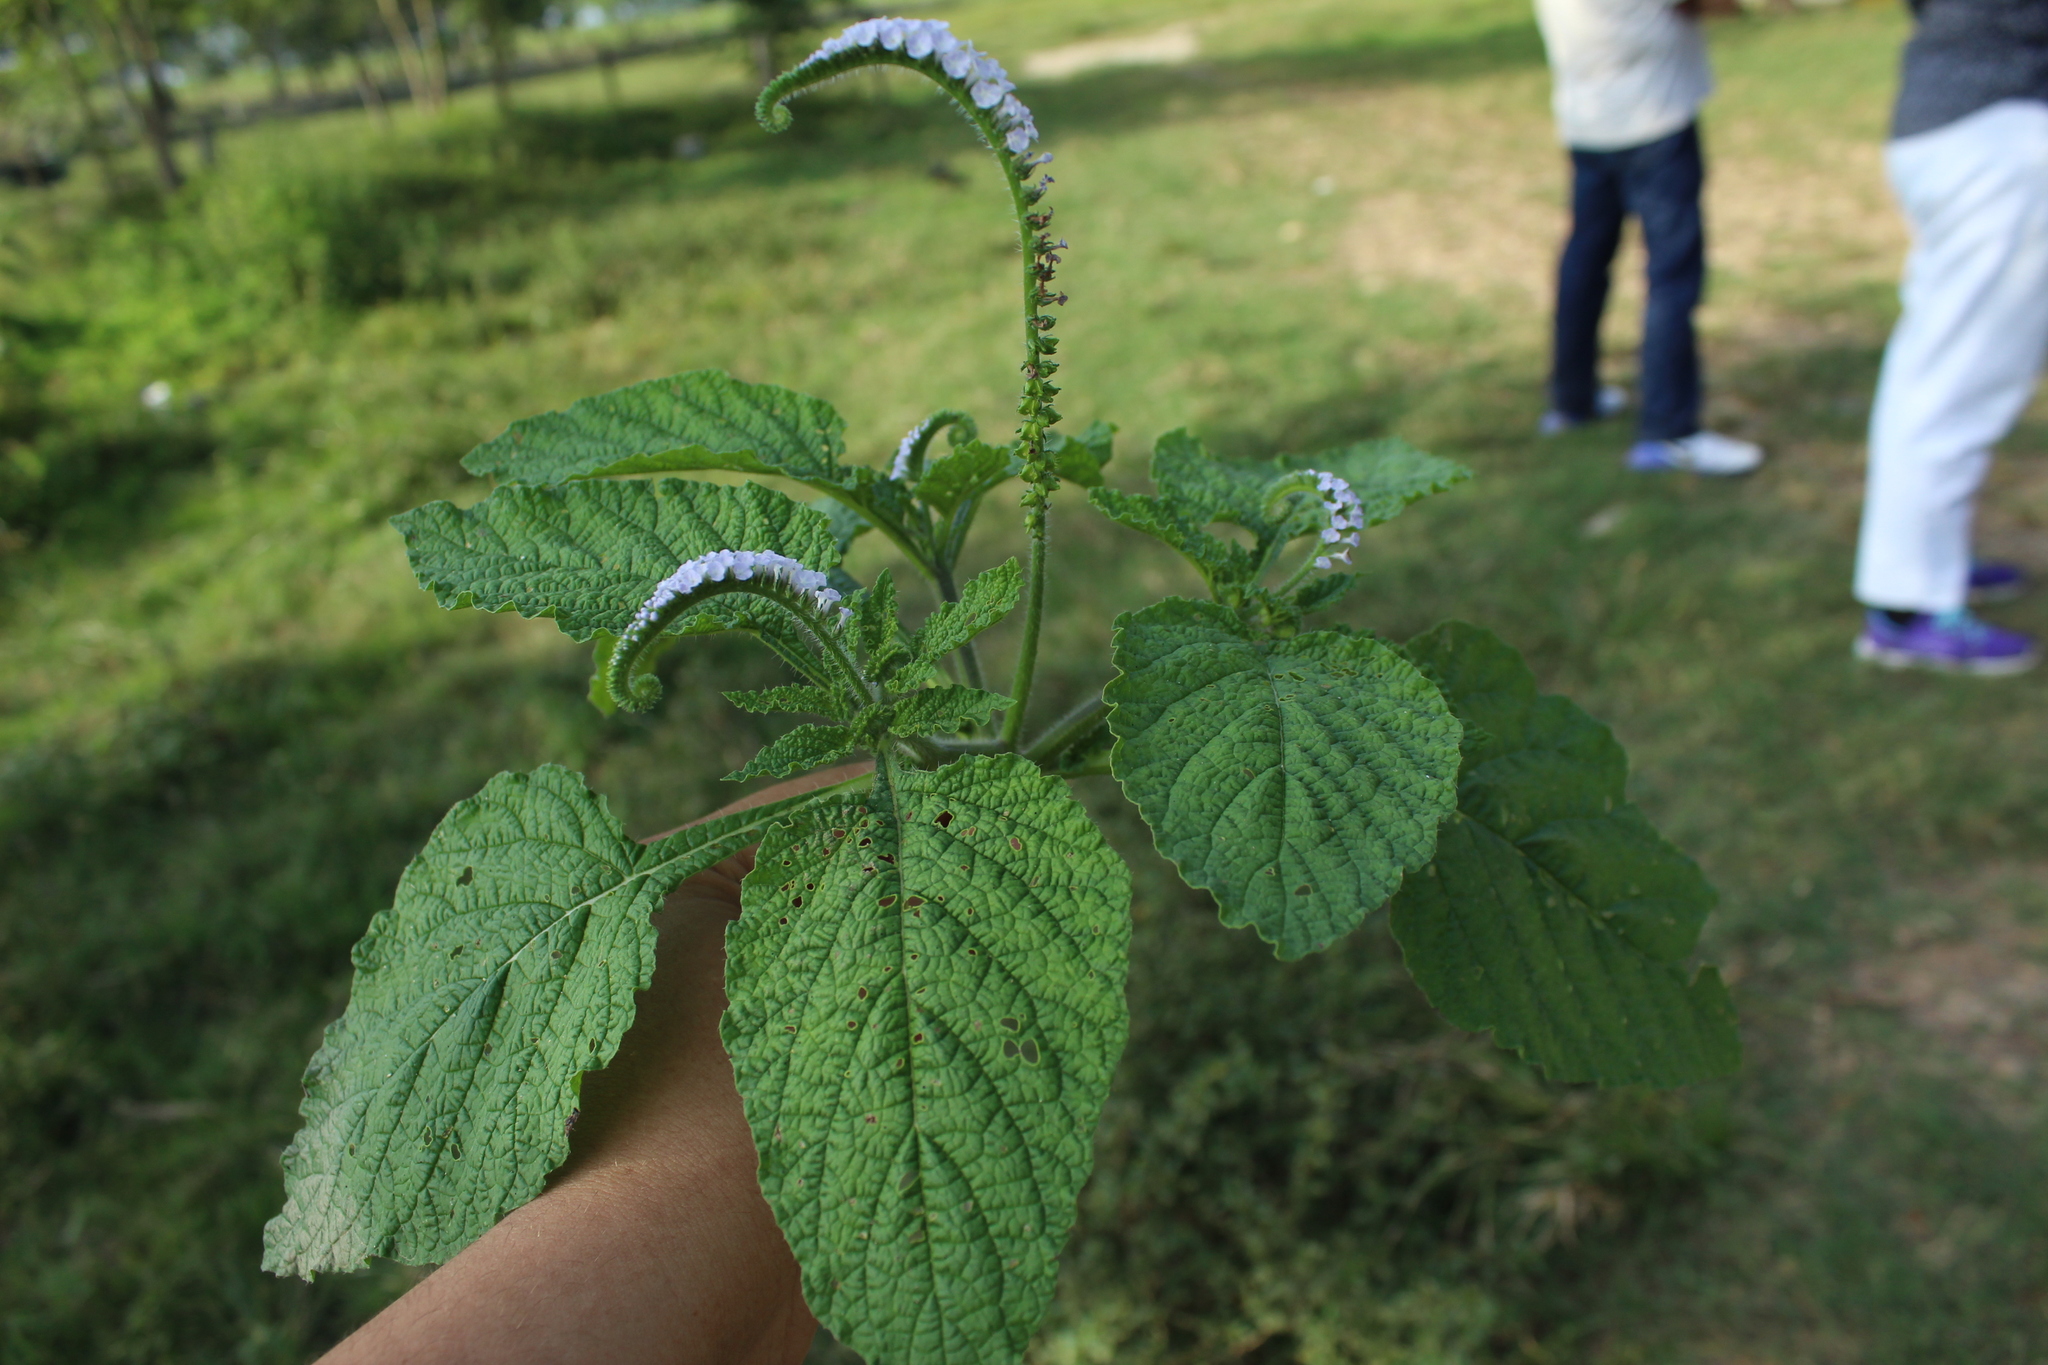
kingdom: Plantae
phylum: Tracheophyta
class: Magnoliopsida
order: Boraginales
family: Heliotropiaceae
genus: Heliotropium
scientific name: Heliotropium indicum
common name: Indian heliotrope
